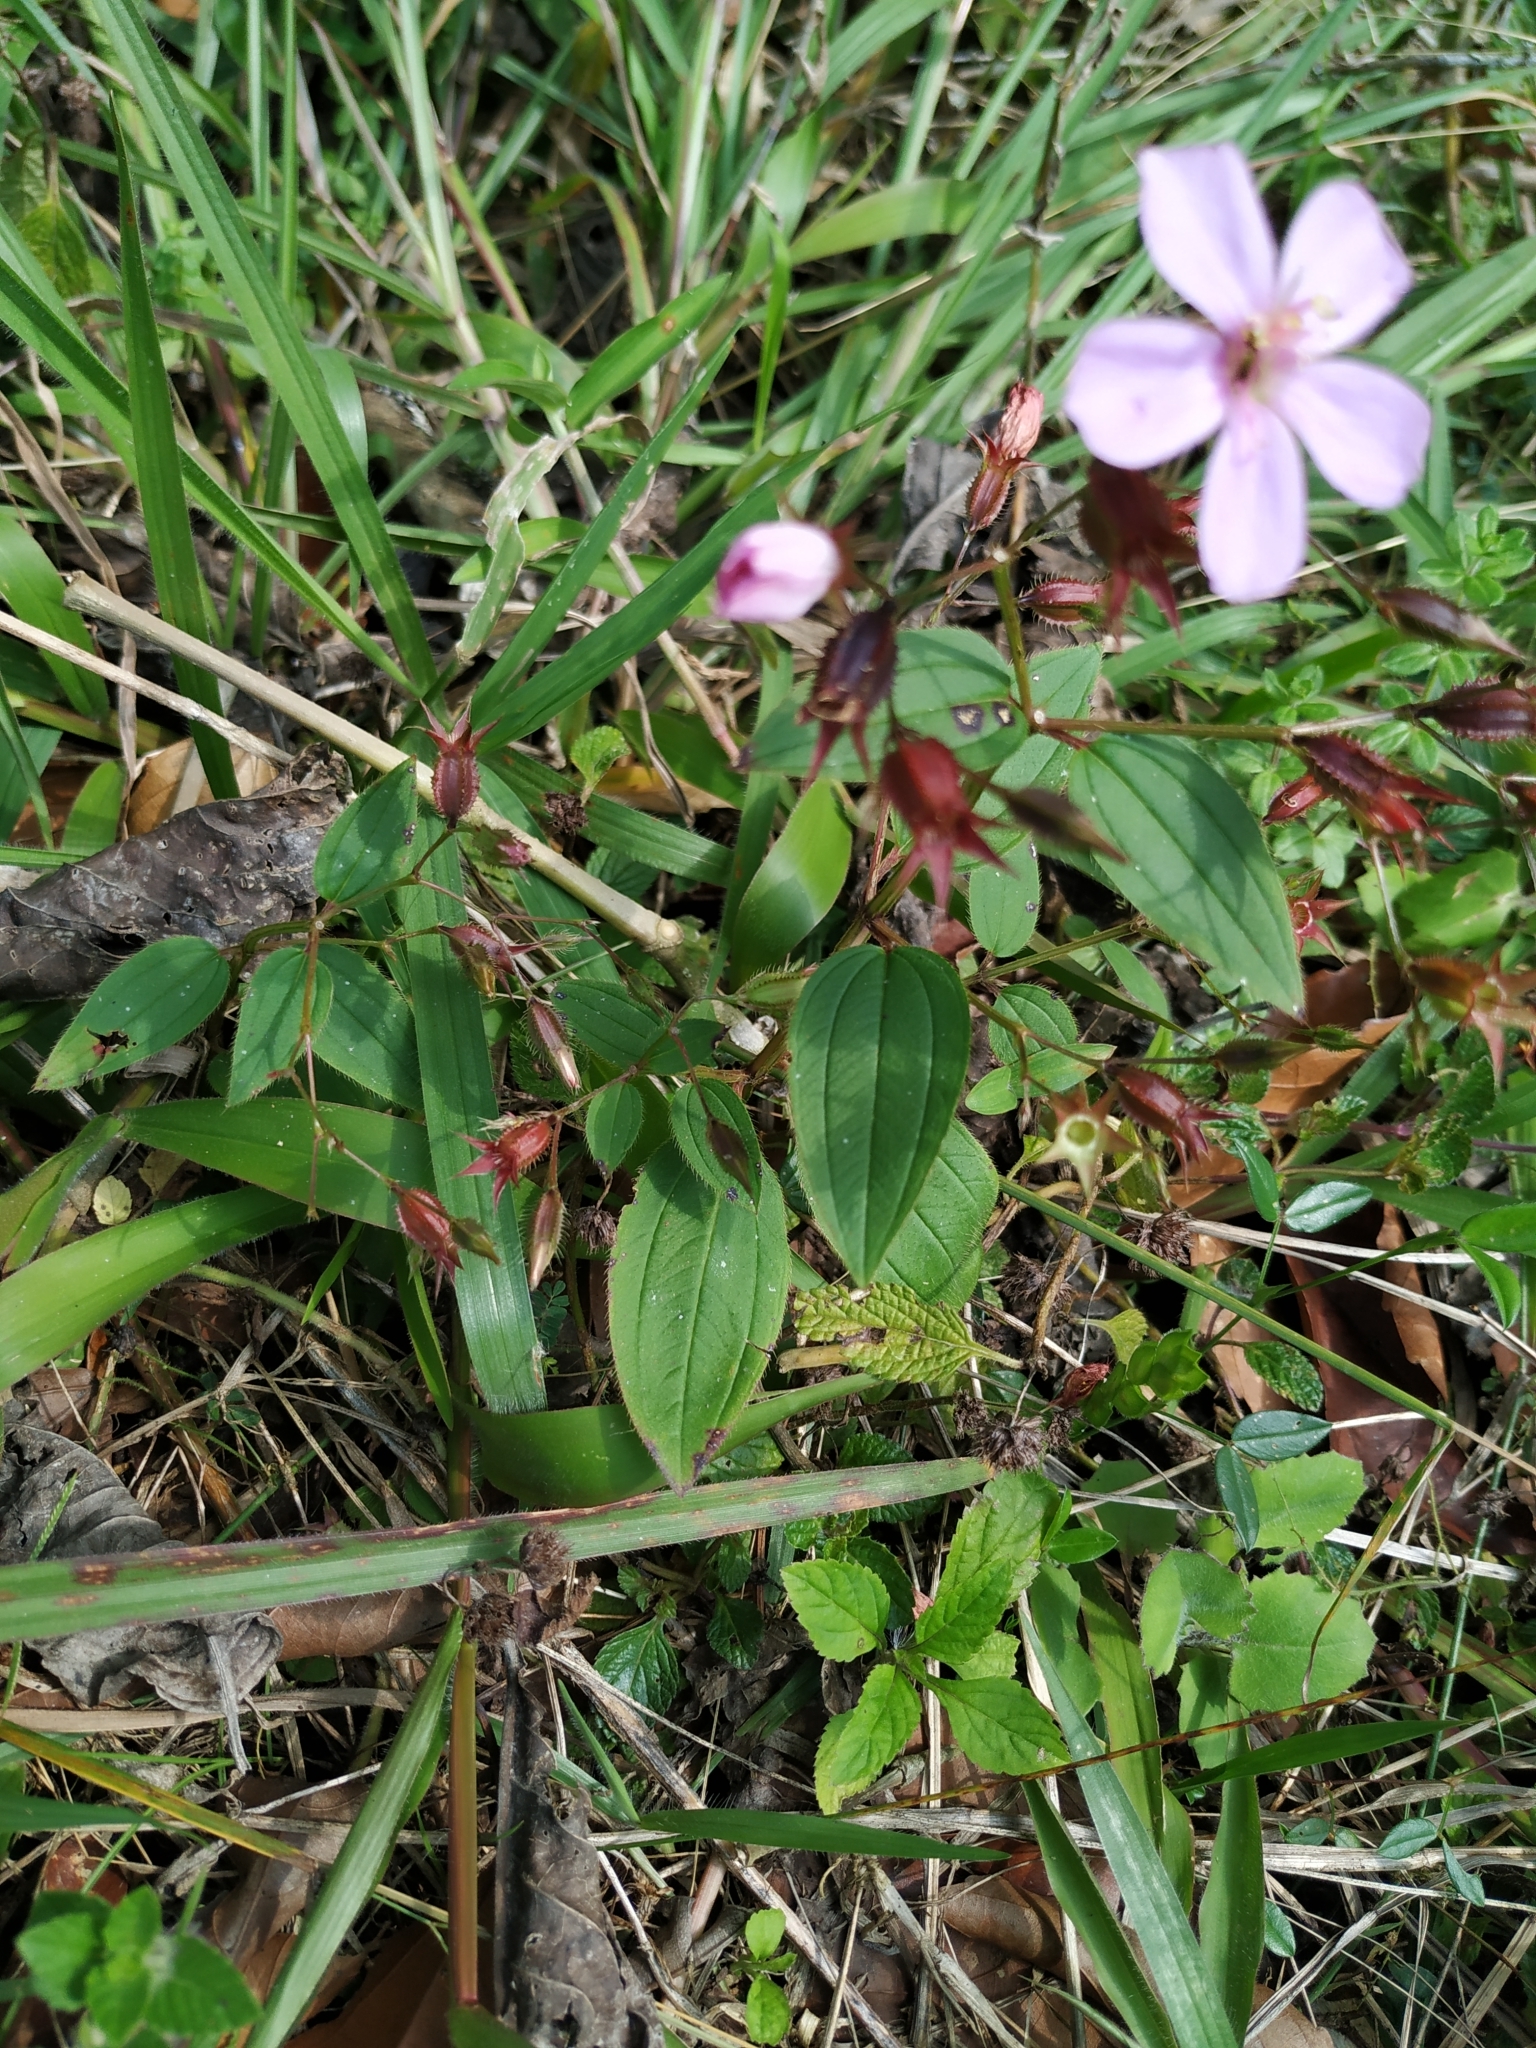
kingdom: Plantae
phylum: Tracheophyta
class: Magnoliopsida
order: Myrtales
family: Melastomataceae
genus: Pterogastra
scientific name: Pterogastra divaricata
